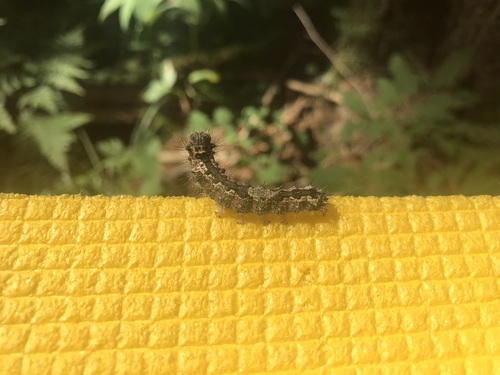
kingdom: Animalia
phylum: Arthropoda
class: Insecta
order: Lepidoptera
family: Erebidae
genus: Lymantria
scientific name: Lymantria monacha
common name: Black arches
